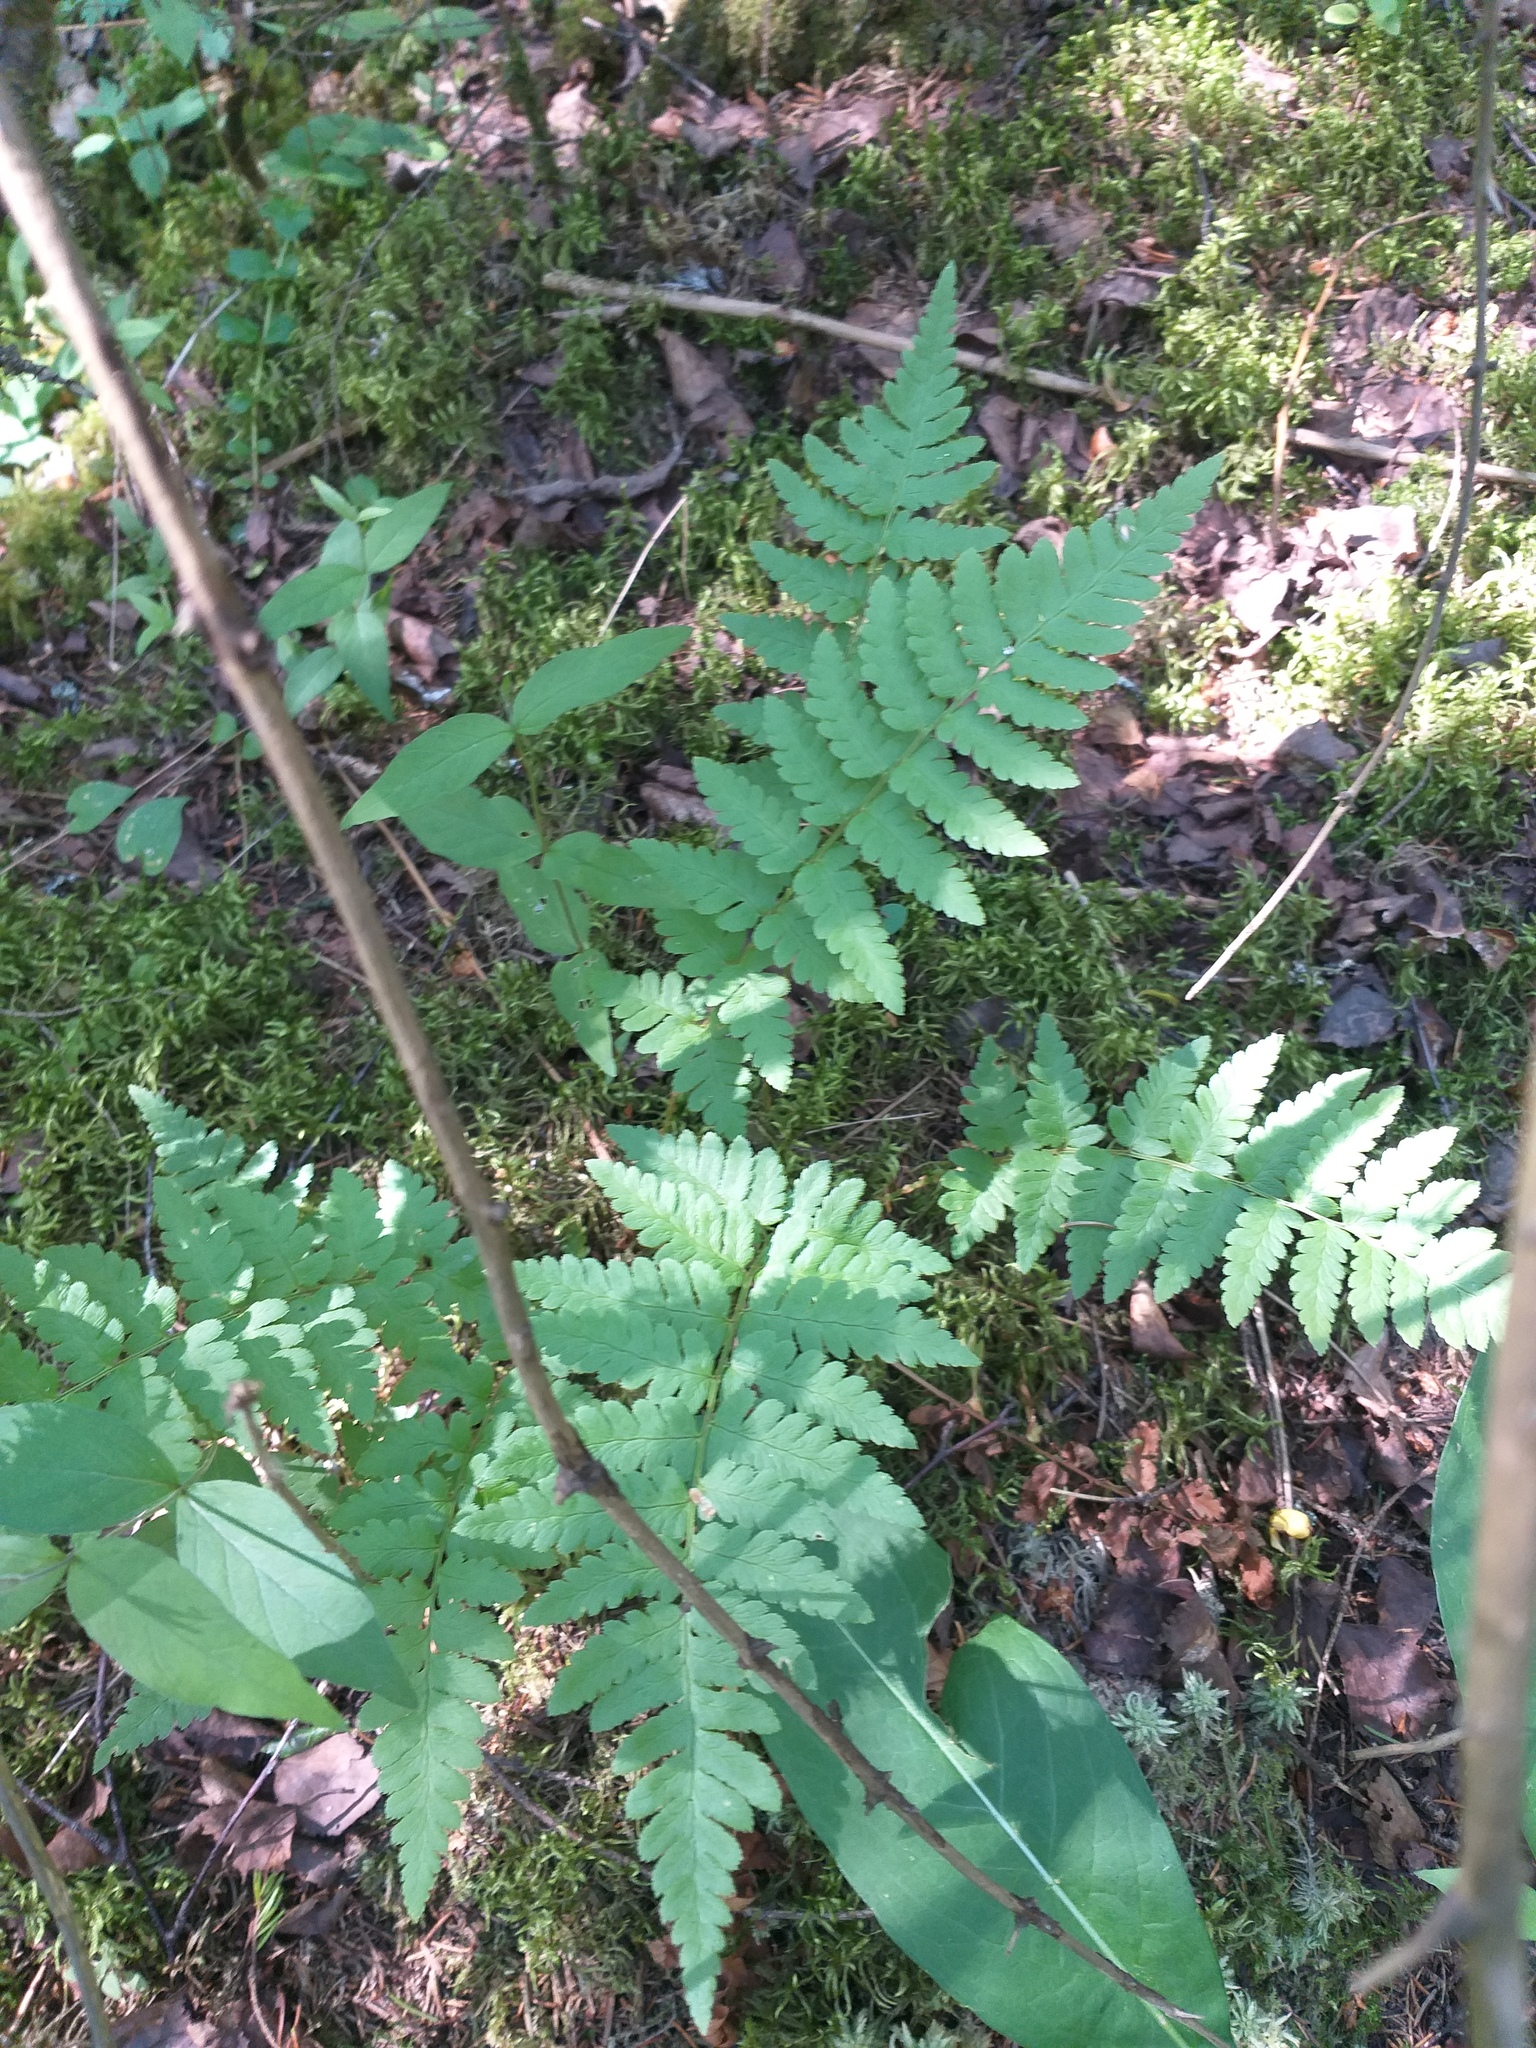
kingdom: Plantae
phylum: Tracheophyta
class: Polypodiopsida
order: Polypodiales
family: Dryopteridaceae
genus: Dryopteris
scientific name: Dryopteris cristata
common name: Crested wood fern
